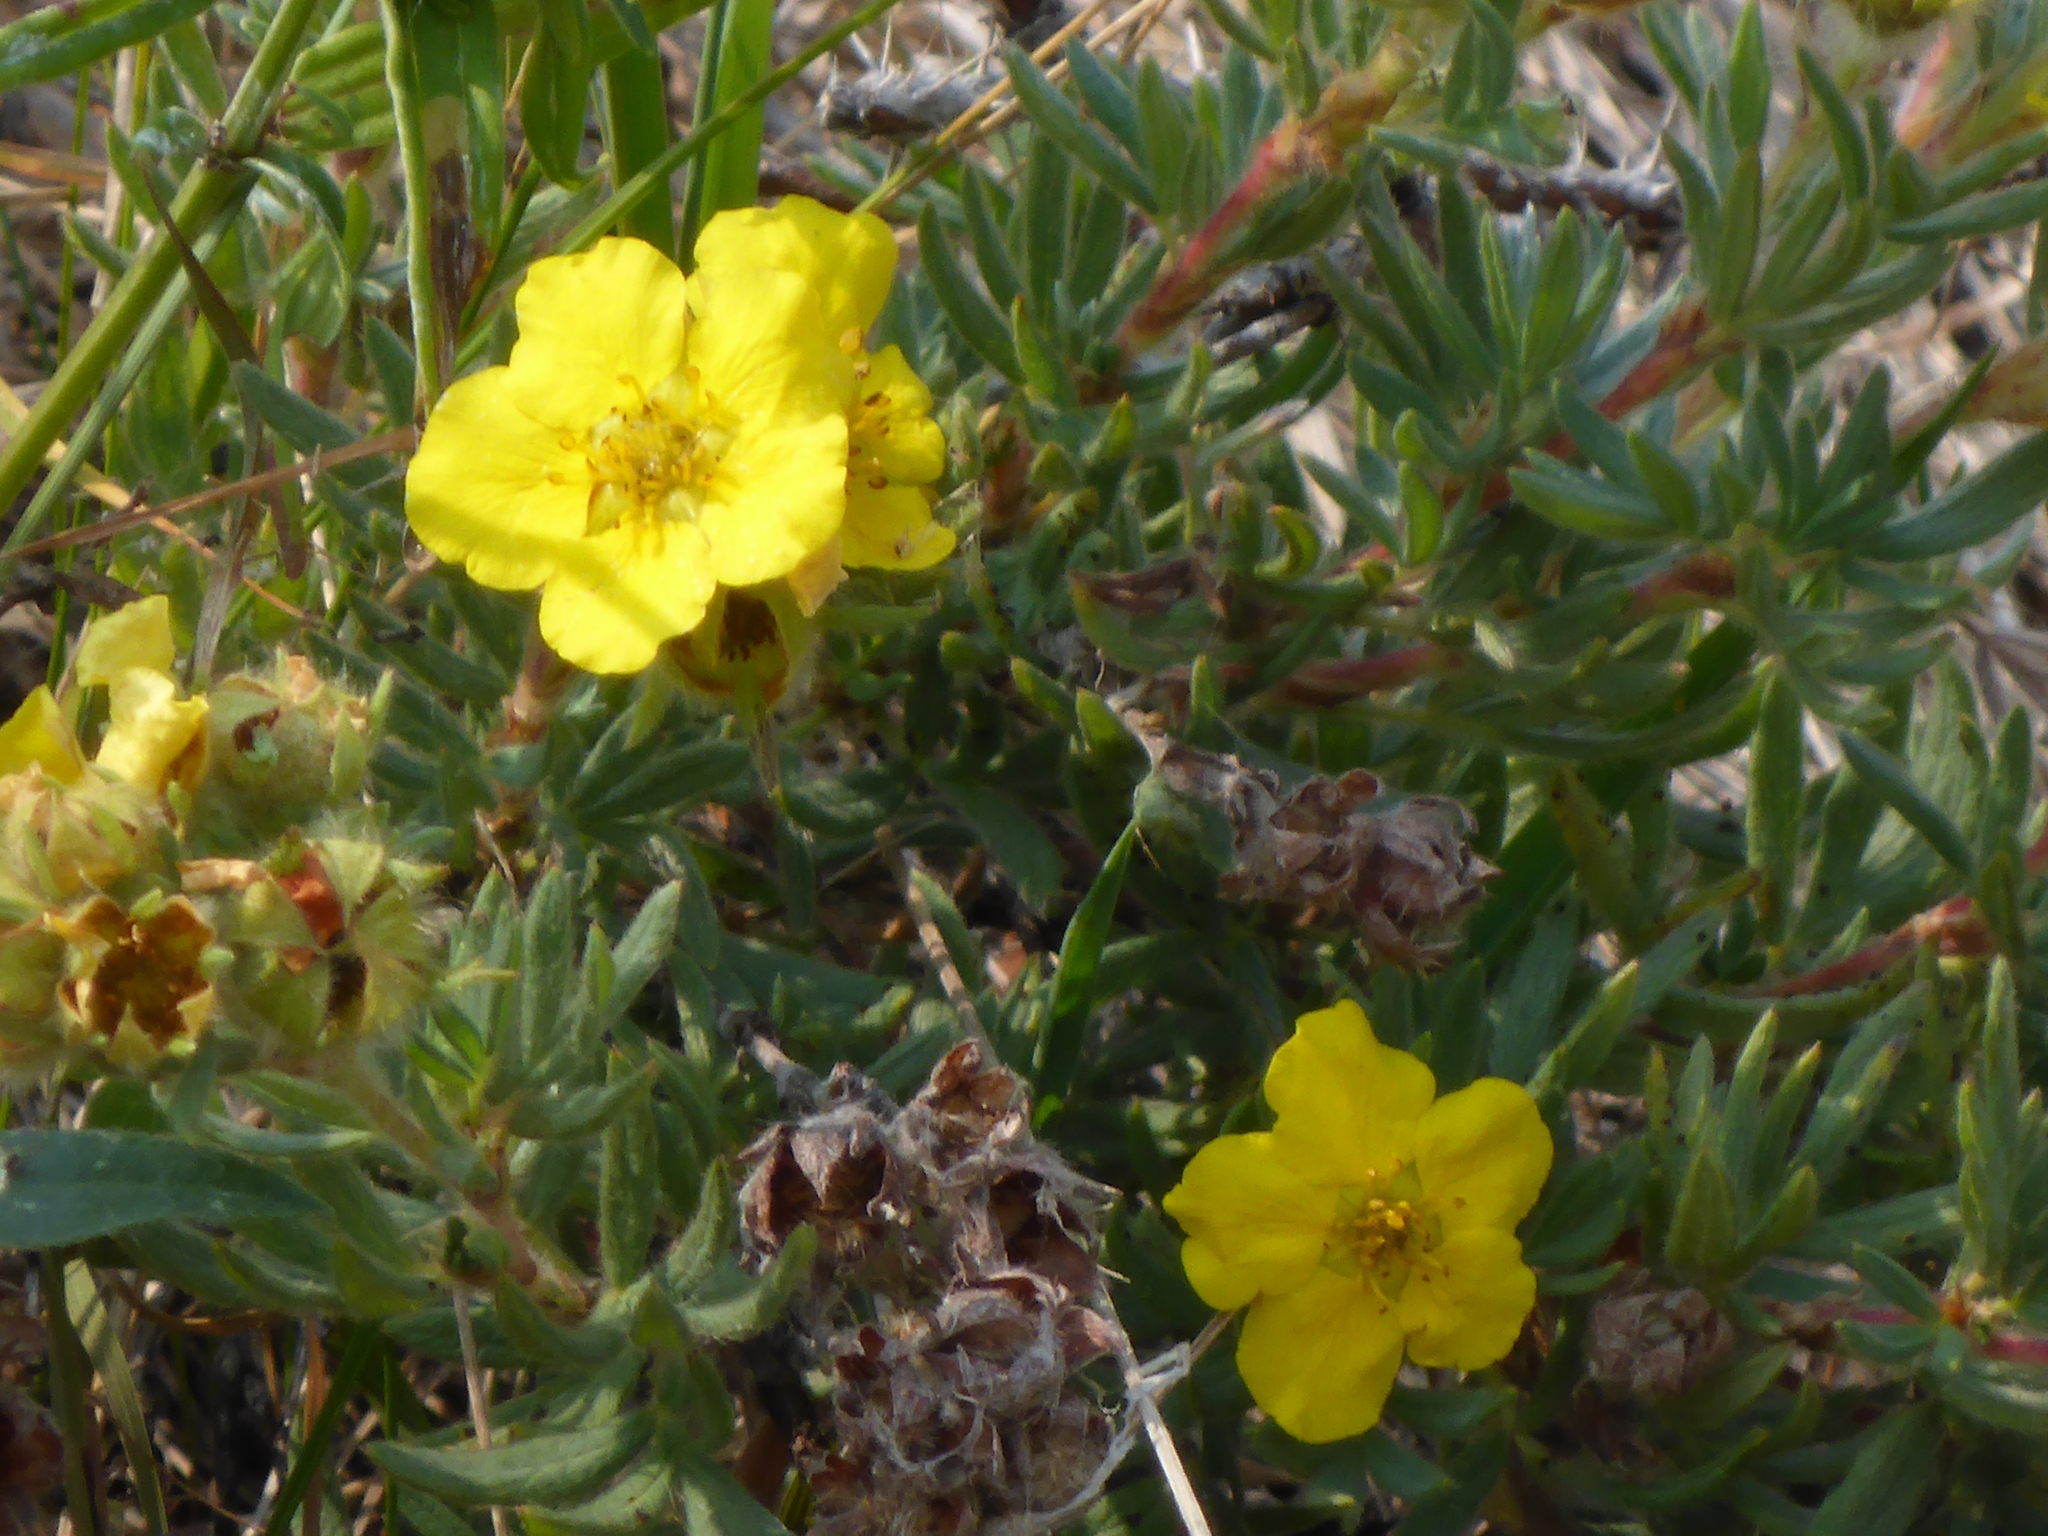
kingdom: Plantae
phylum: Tracheophyta
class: Magnoliopsida
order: Rosales
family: Rosaceae
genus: Dasiphora
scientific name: Dasiphora fruticosa
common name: Shrubby cinquefoil
